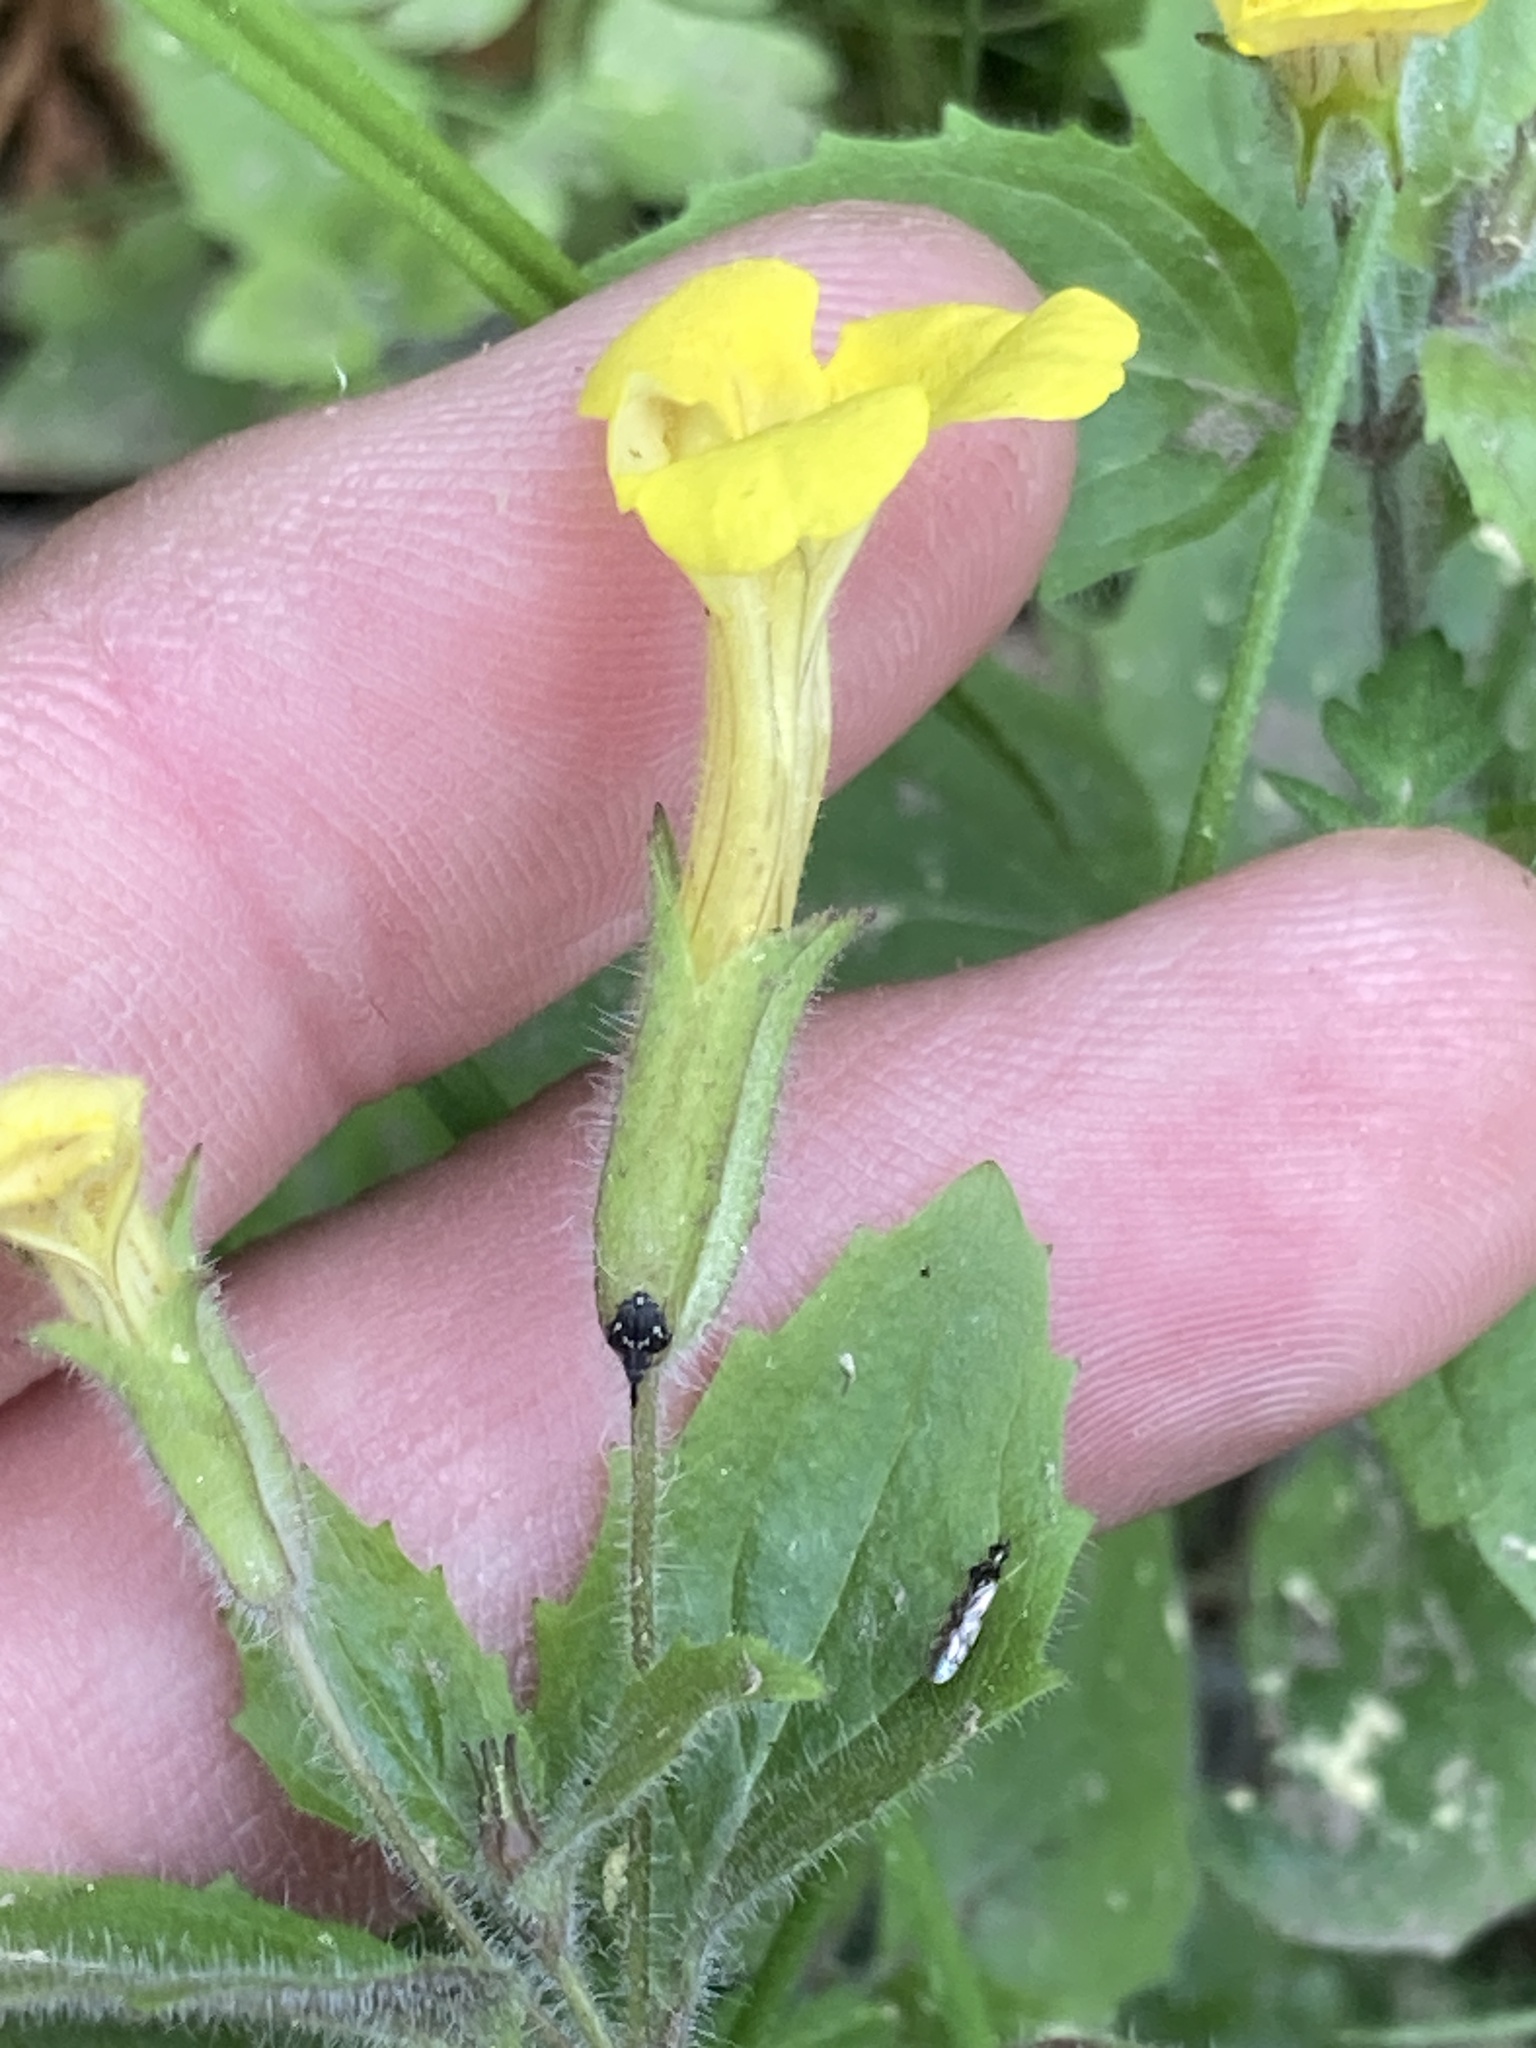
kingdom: Plantae
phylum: Tracheophyta
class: Magnoliopsida
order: Lamiales
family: Phrymaceae
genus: Erythranthe
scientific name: Erythranthe moschata
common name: Muskflower
